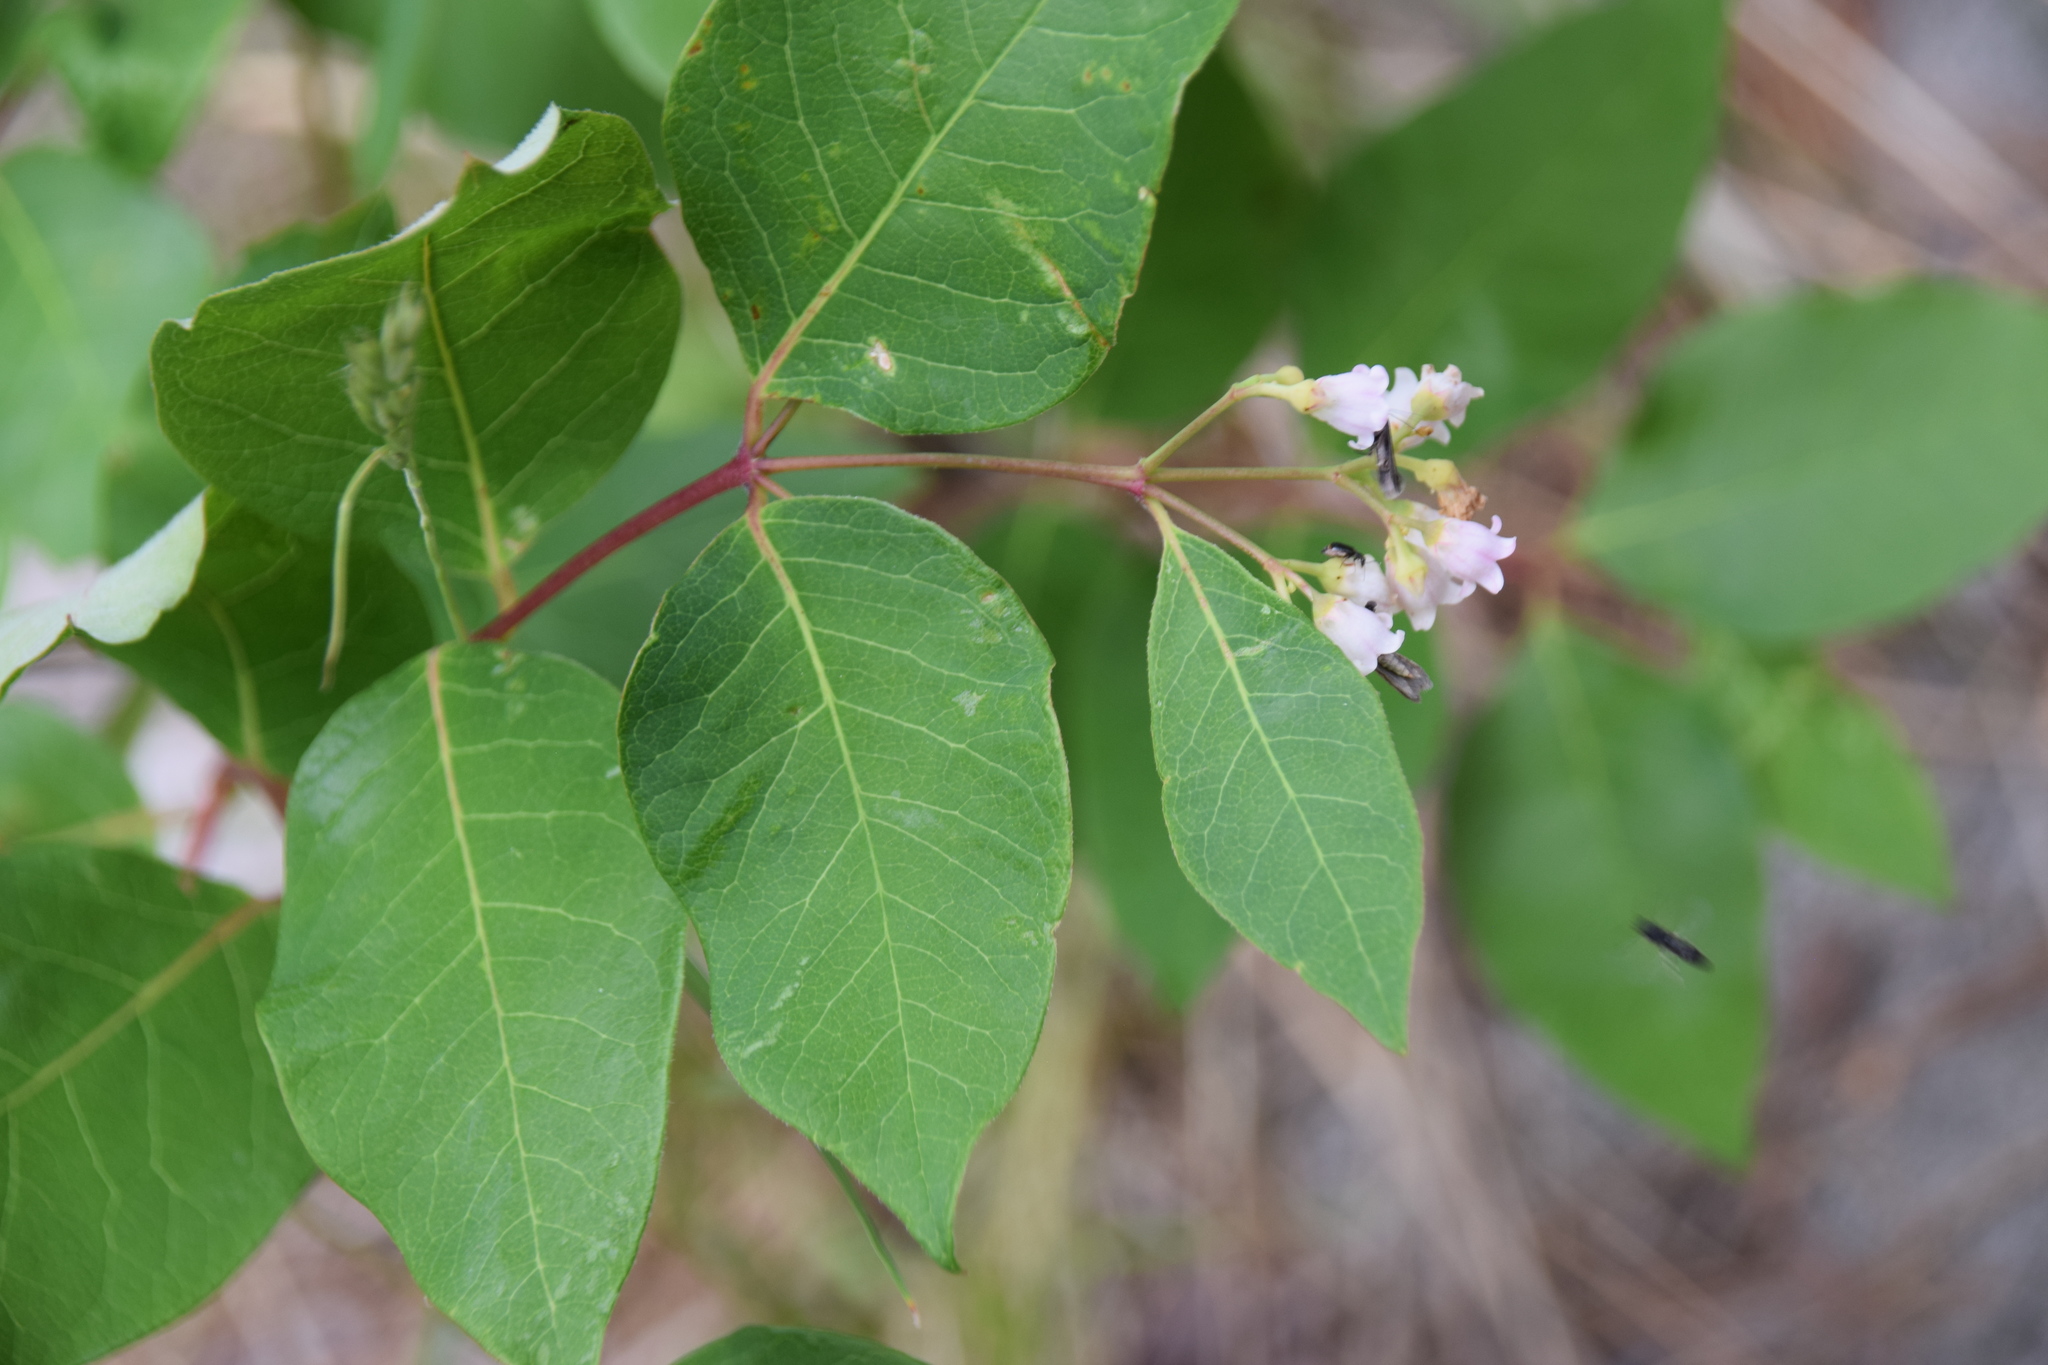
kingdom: Plantae
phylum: Tracheophyta
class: Magnoliopsida
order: Gentianales
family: Apocynaceae
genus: Apocynum
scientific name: Apocynum androsaemifolium
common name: Spreading dogbane
